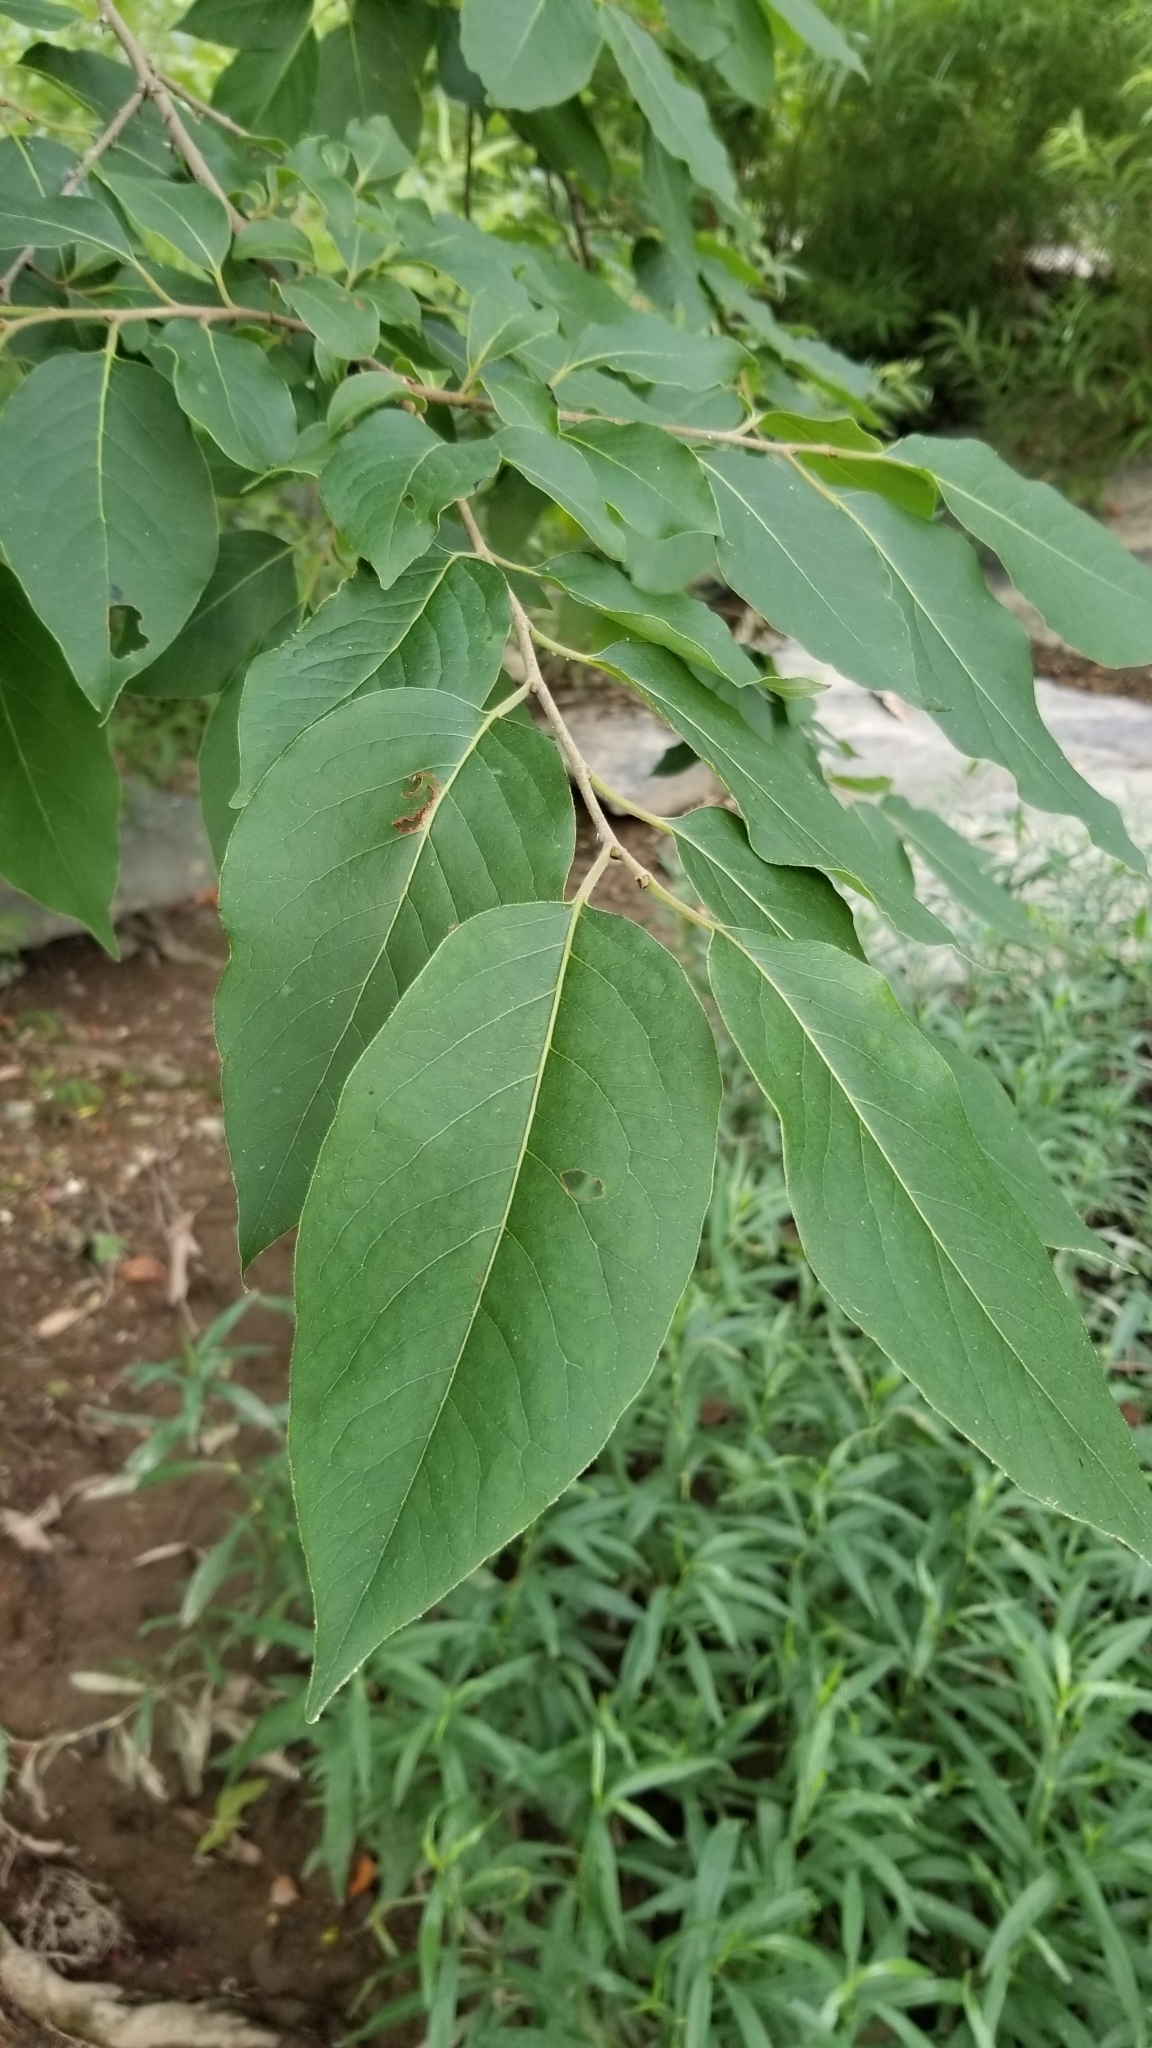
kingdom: Plantae
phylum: Tracheophyta
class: Magnoliopsida
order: Ericales
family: Ebenaceae
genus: Diospyros
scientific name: Diospyros virginiana
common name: Persimmon
